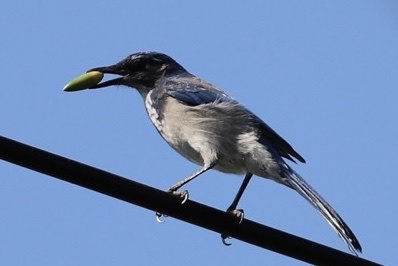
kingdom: Animalia
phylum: Chordata
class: Aves
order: Passeriformes
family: Corvidae
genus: Aphelocoma
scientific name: Aphelocoma californica
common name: California scrub-jay
